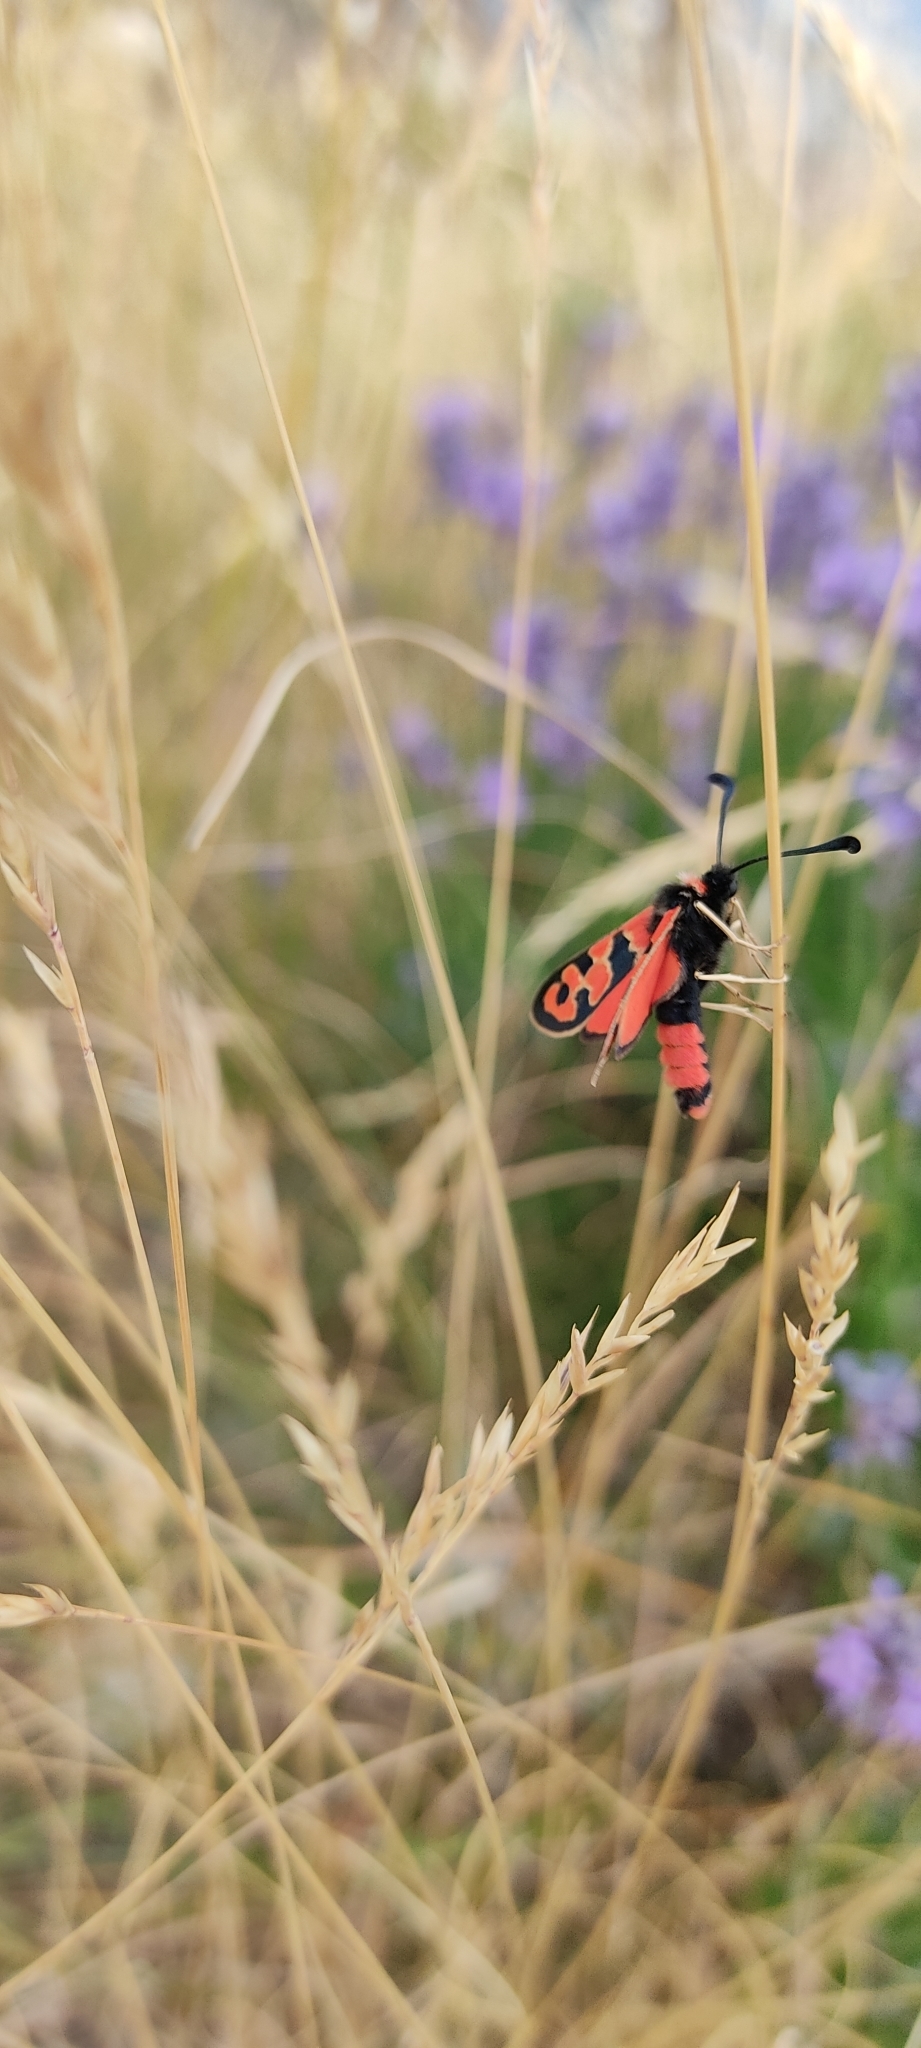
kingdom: Animalia
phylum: Arthropoda
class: Insecta
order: Lepidoptera
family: Zygaenidae
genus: Zygaena
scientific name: Zygaena fausta
